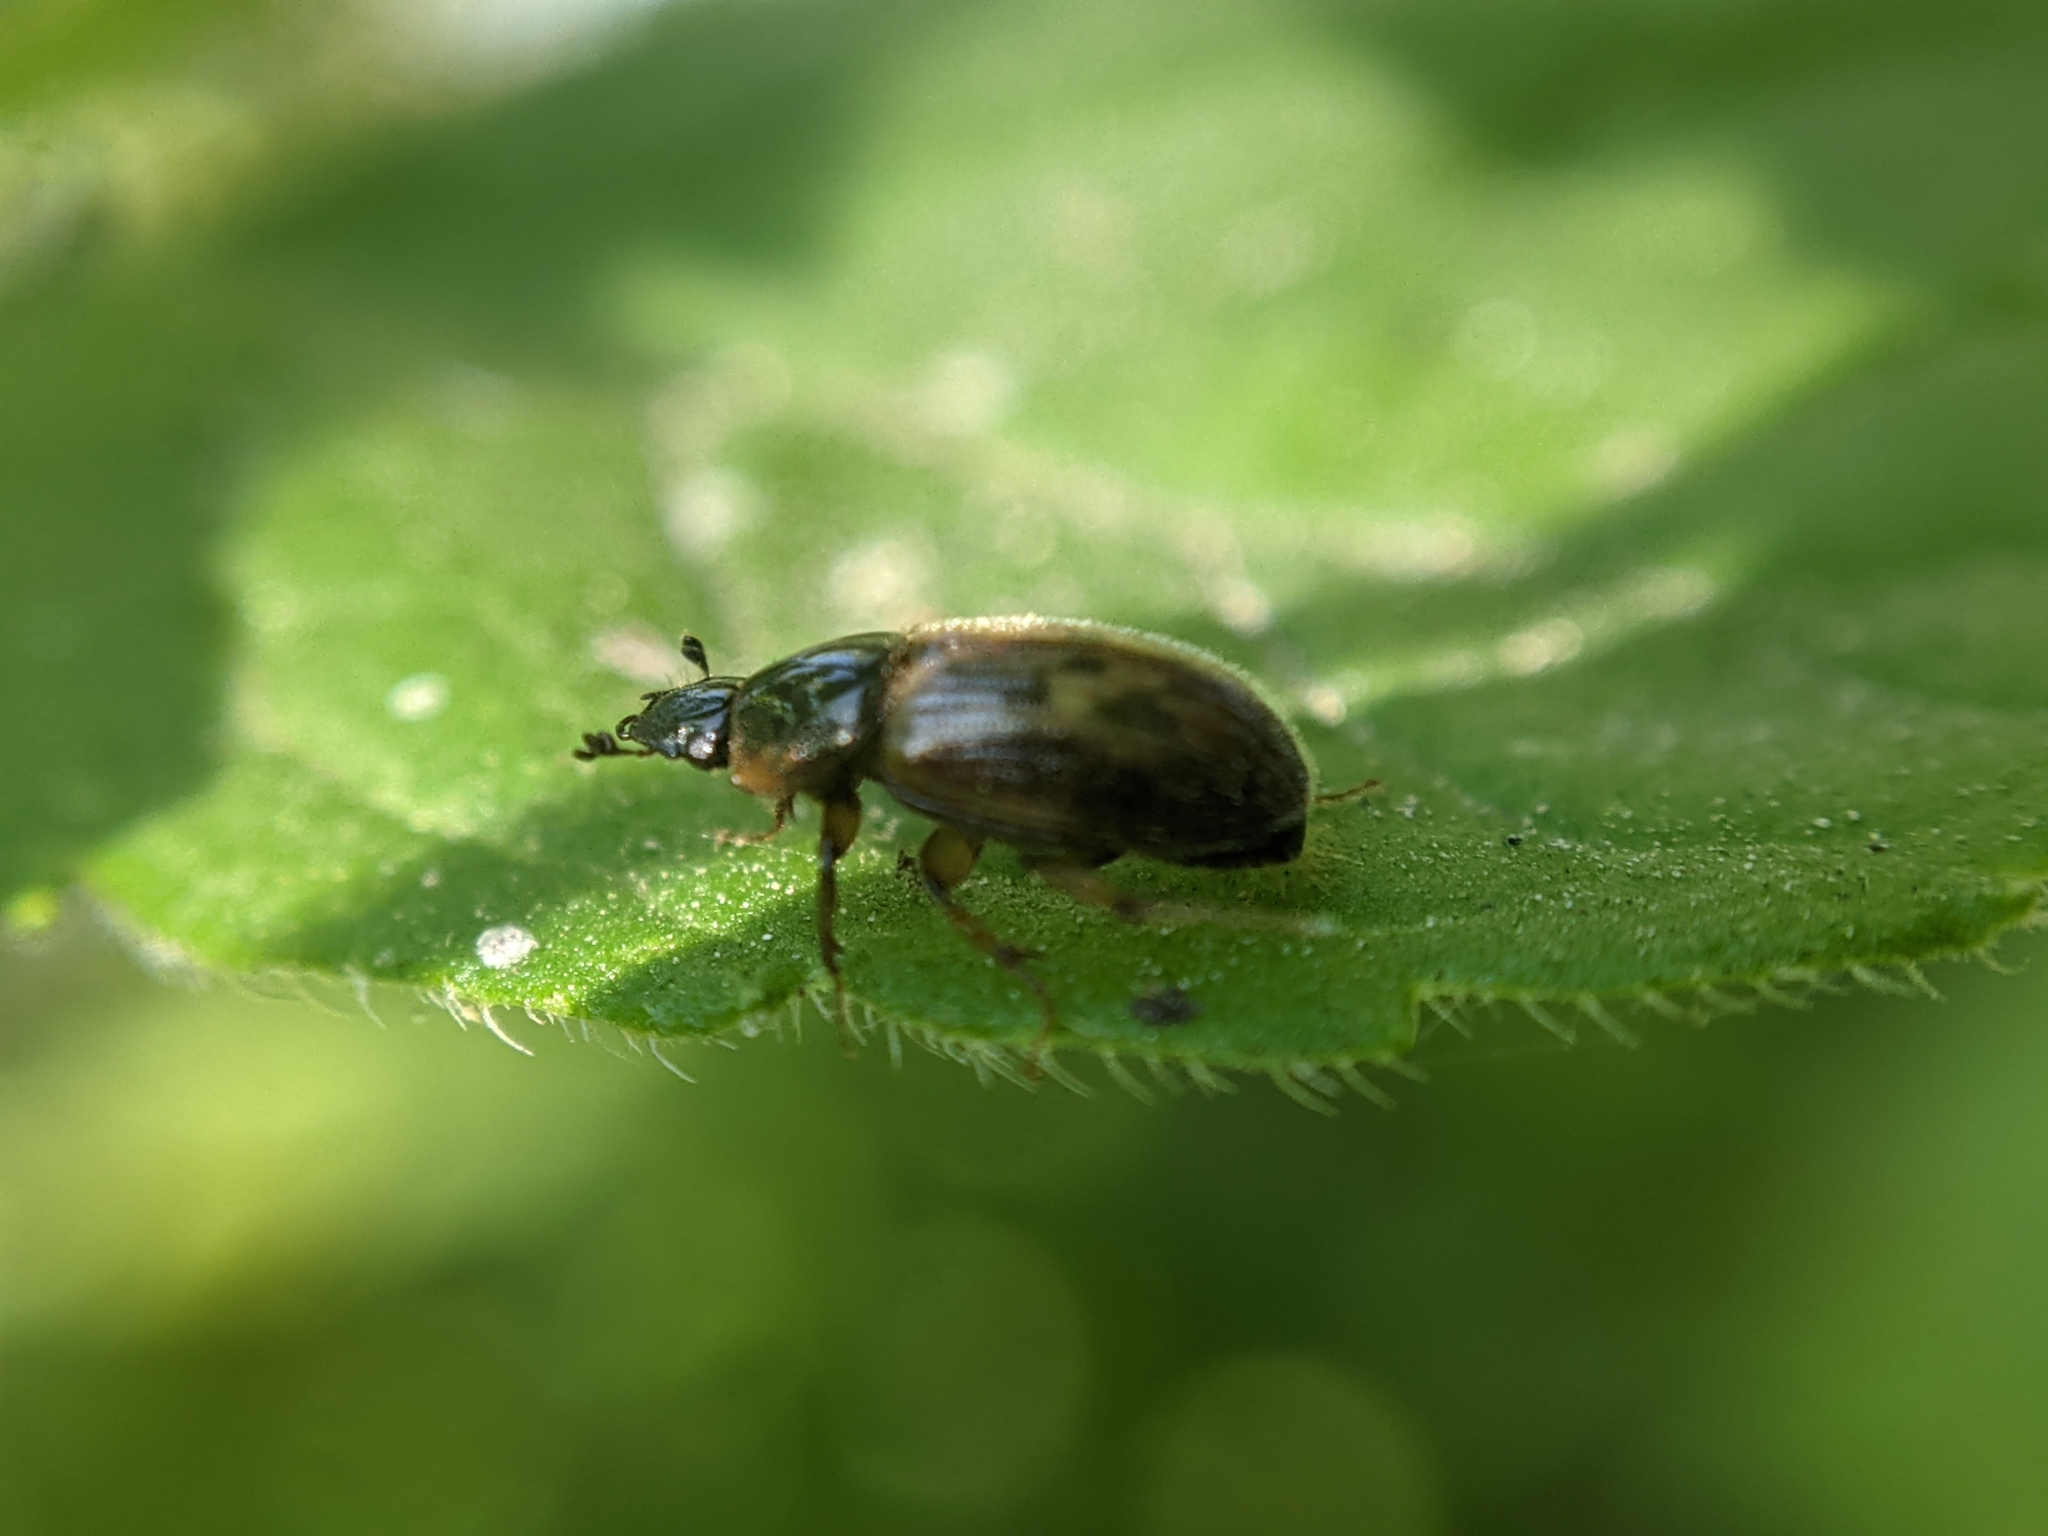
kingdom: Animalia
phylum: Arthropoda
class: Insecta
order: Coleoptera
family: Scarabaeidae
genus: Nimbus
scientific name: Nimbus contaminatus
